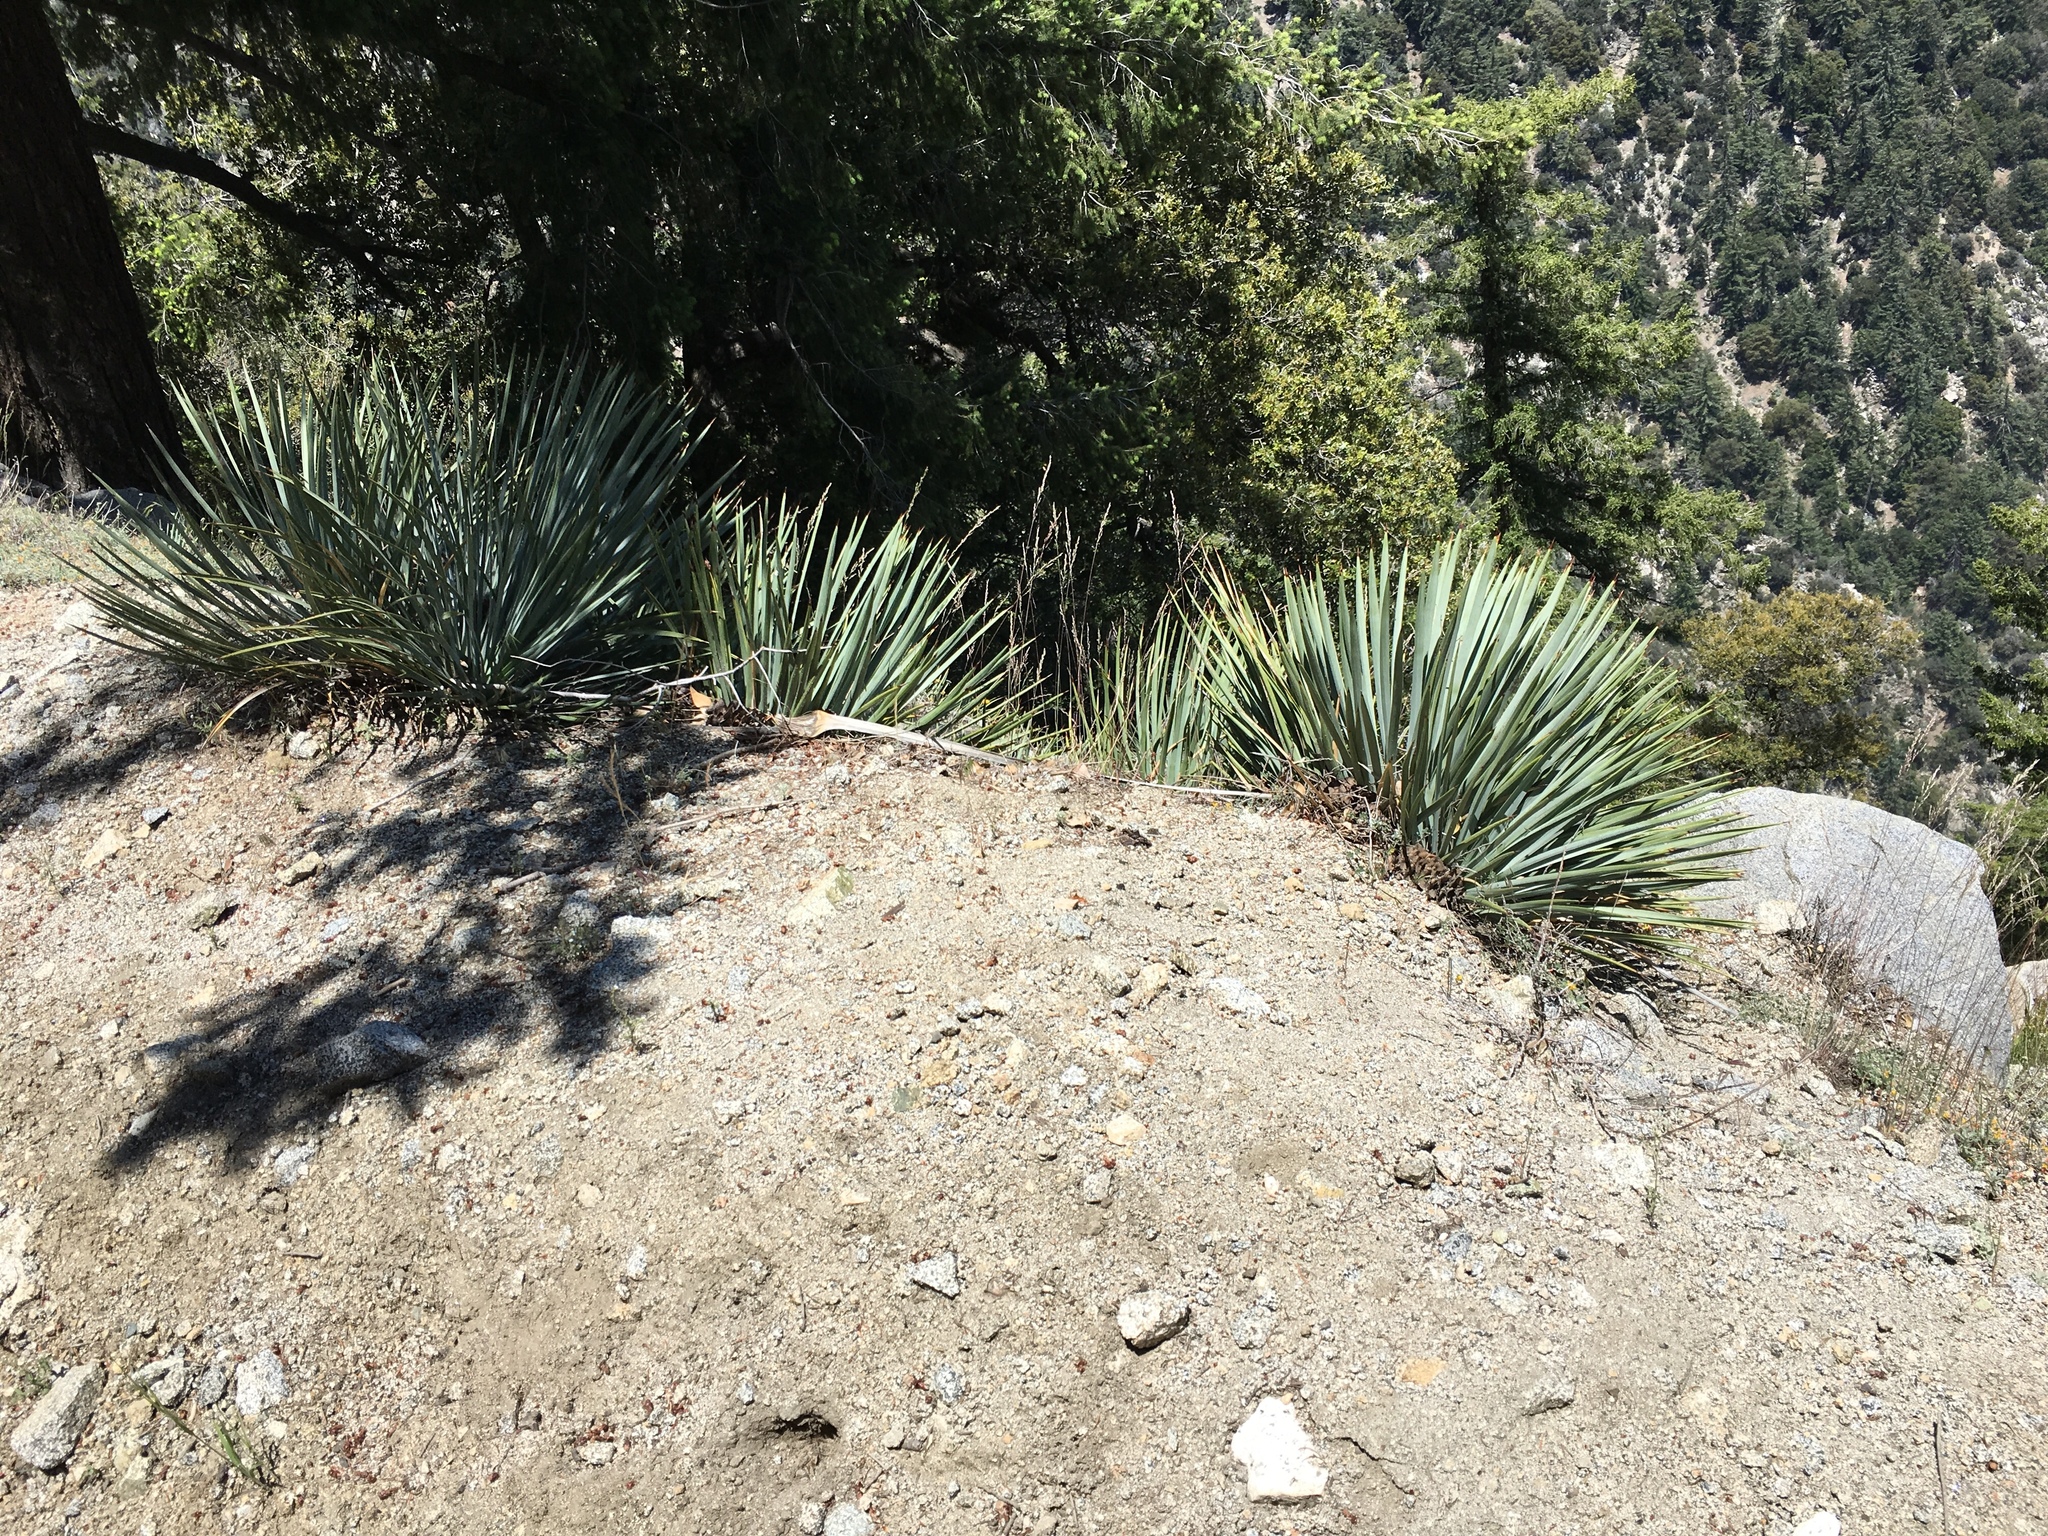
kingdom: Plantae
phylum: Tracheophyta
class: Liliopsida
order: Asparagales
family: Asparagaceae
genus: Hesperoyucca
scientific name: Hesperoyucca whipplei
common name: Our lord's-candle
